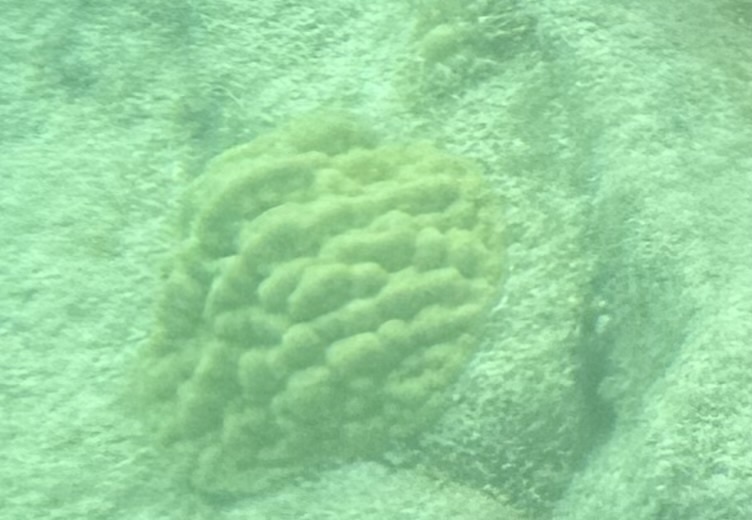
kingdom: Animalia
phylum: Cnidaria
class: Anthozoa
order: Scleractinia
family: Poritidae
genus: Porites
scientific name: Porites astreoides
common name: Mustard hill coral
